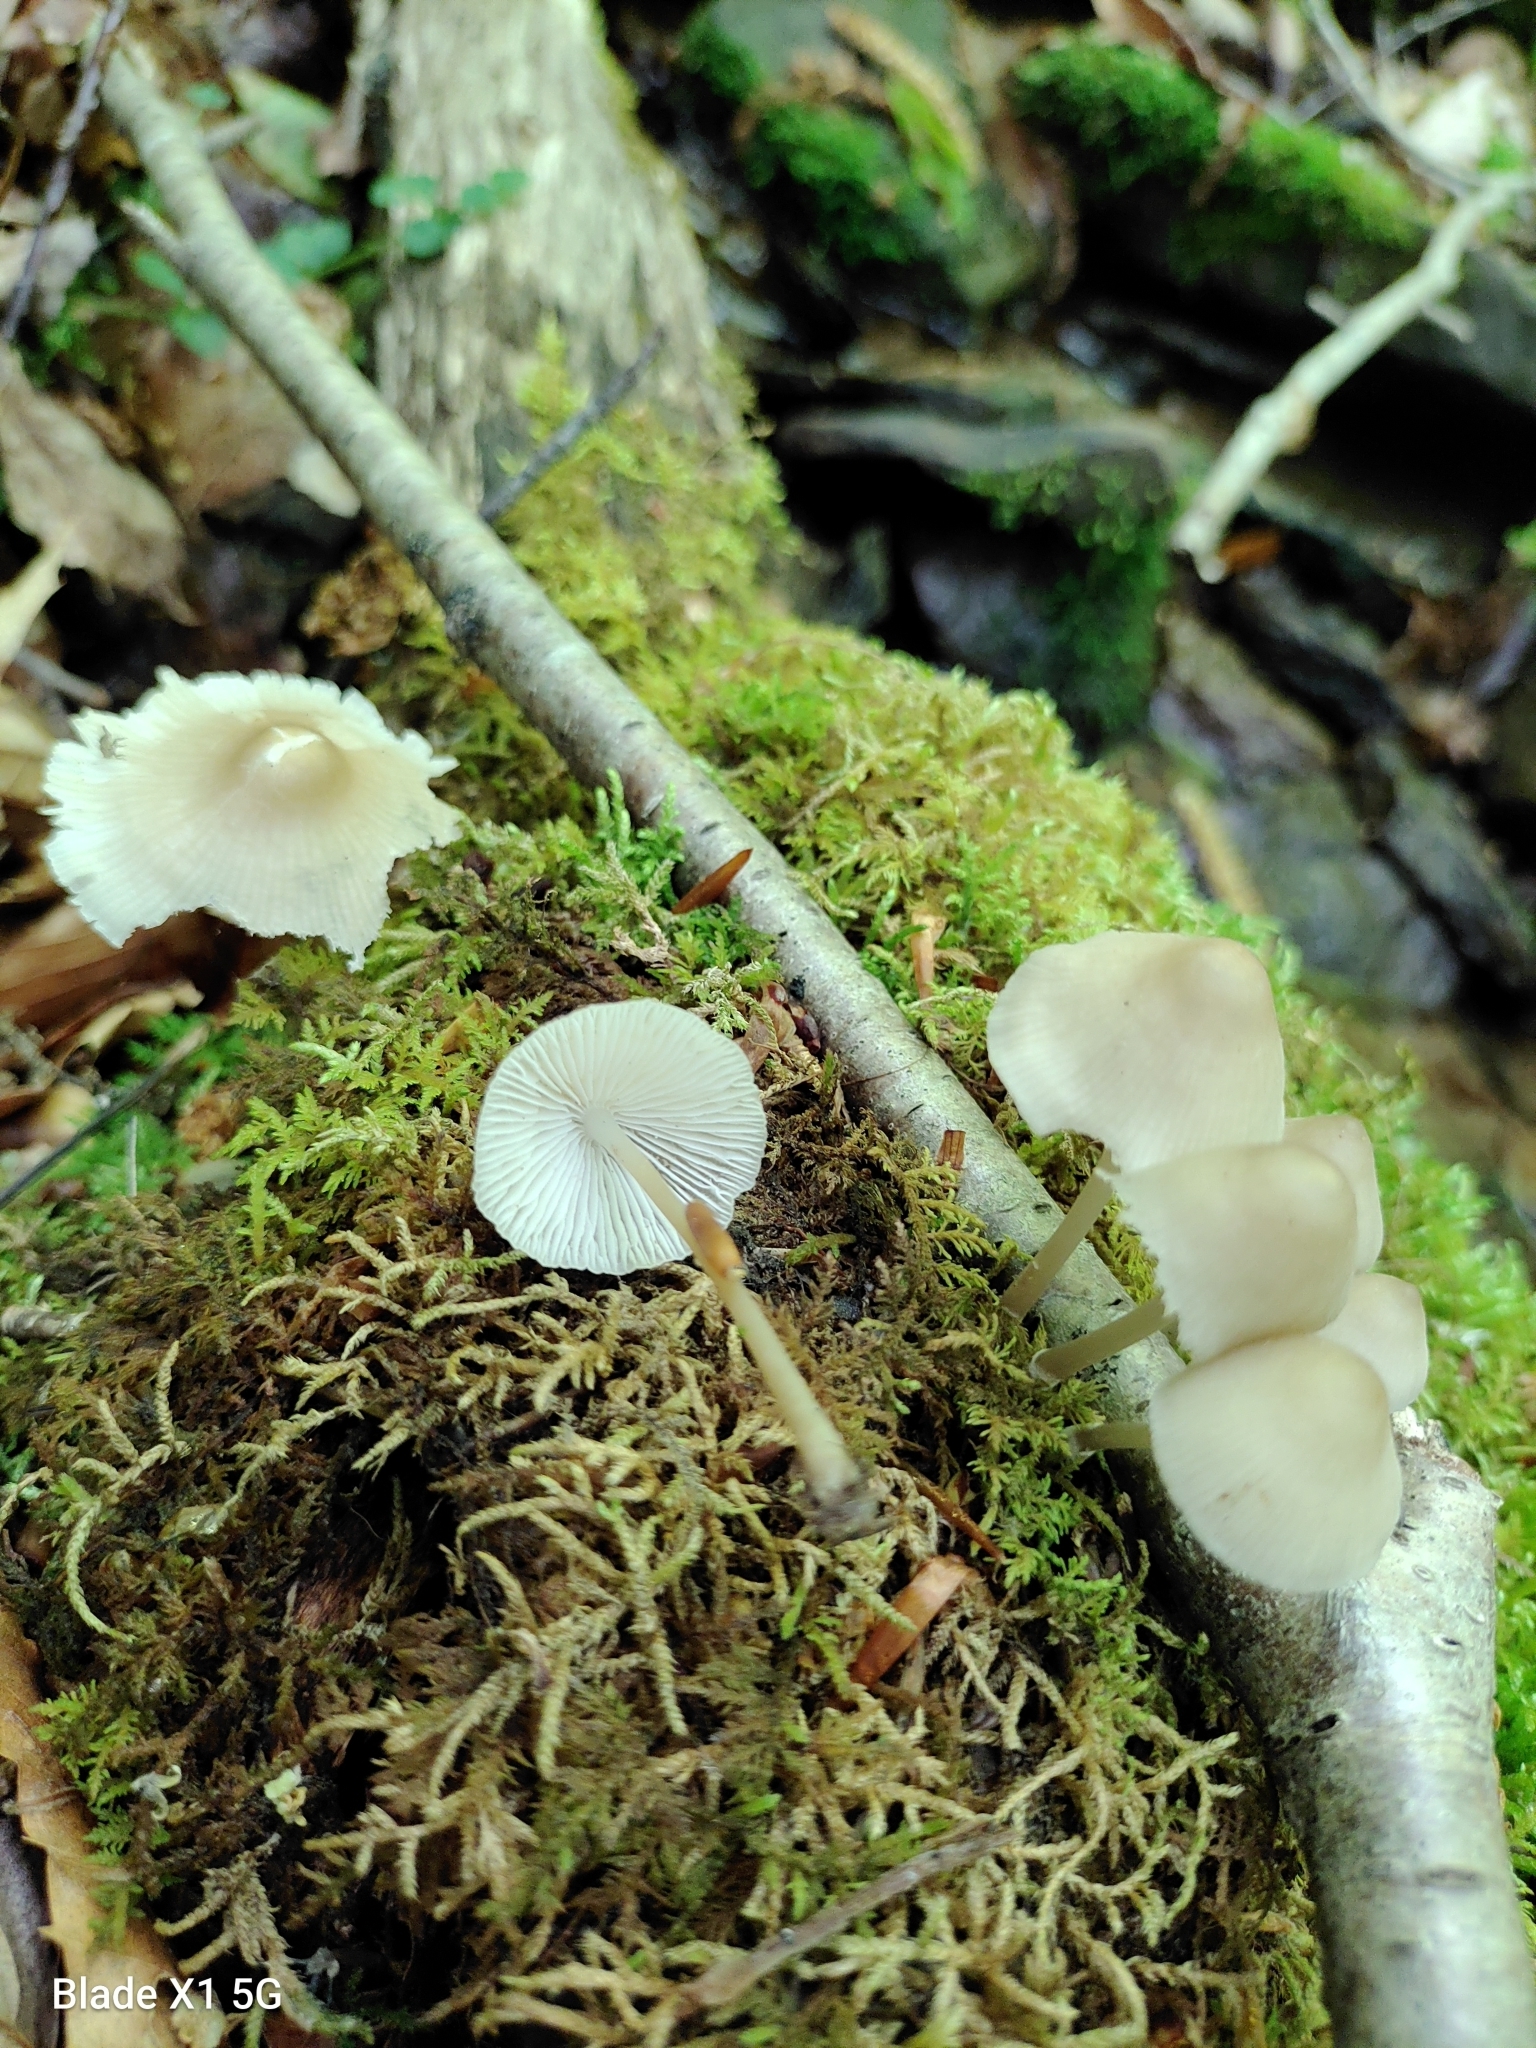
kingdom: Fungi
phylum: Basidiomycota
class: Agaricomycetes
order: Agaricales
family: Mycenaceae
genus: Mycena
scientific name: Mycena galericulata
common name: Bonnet mycena
